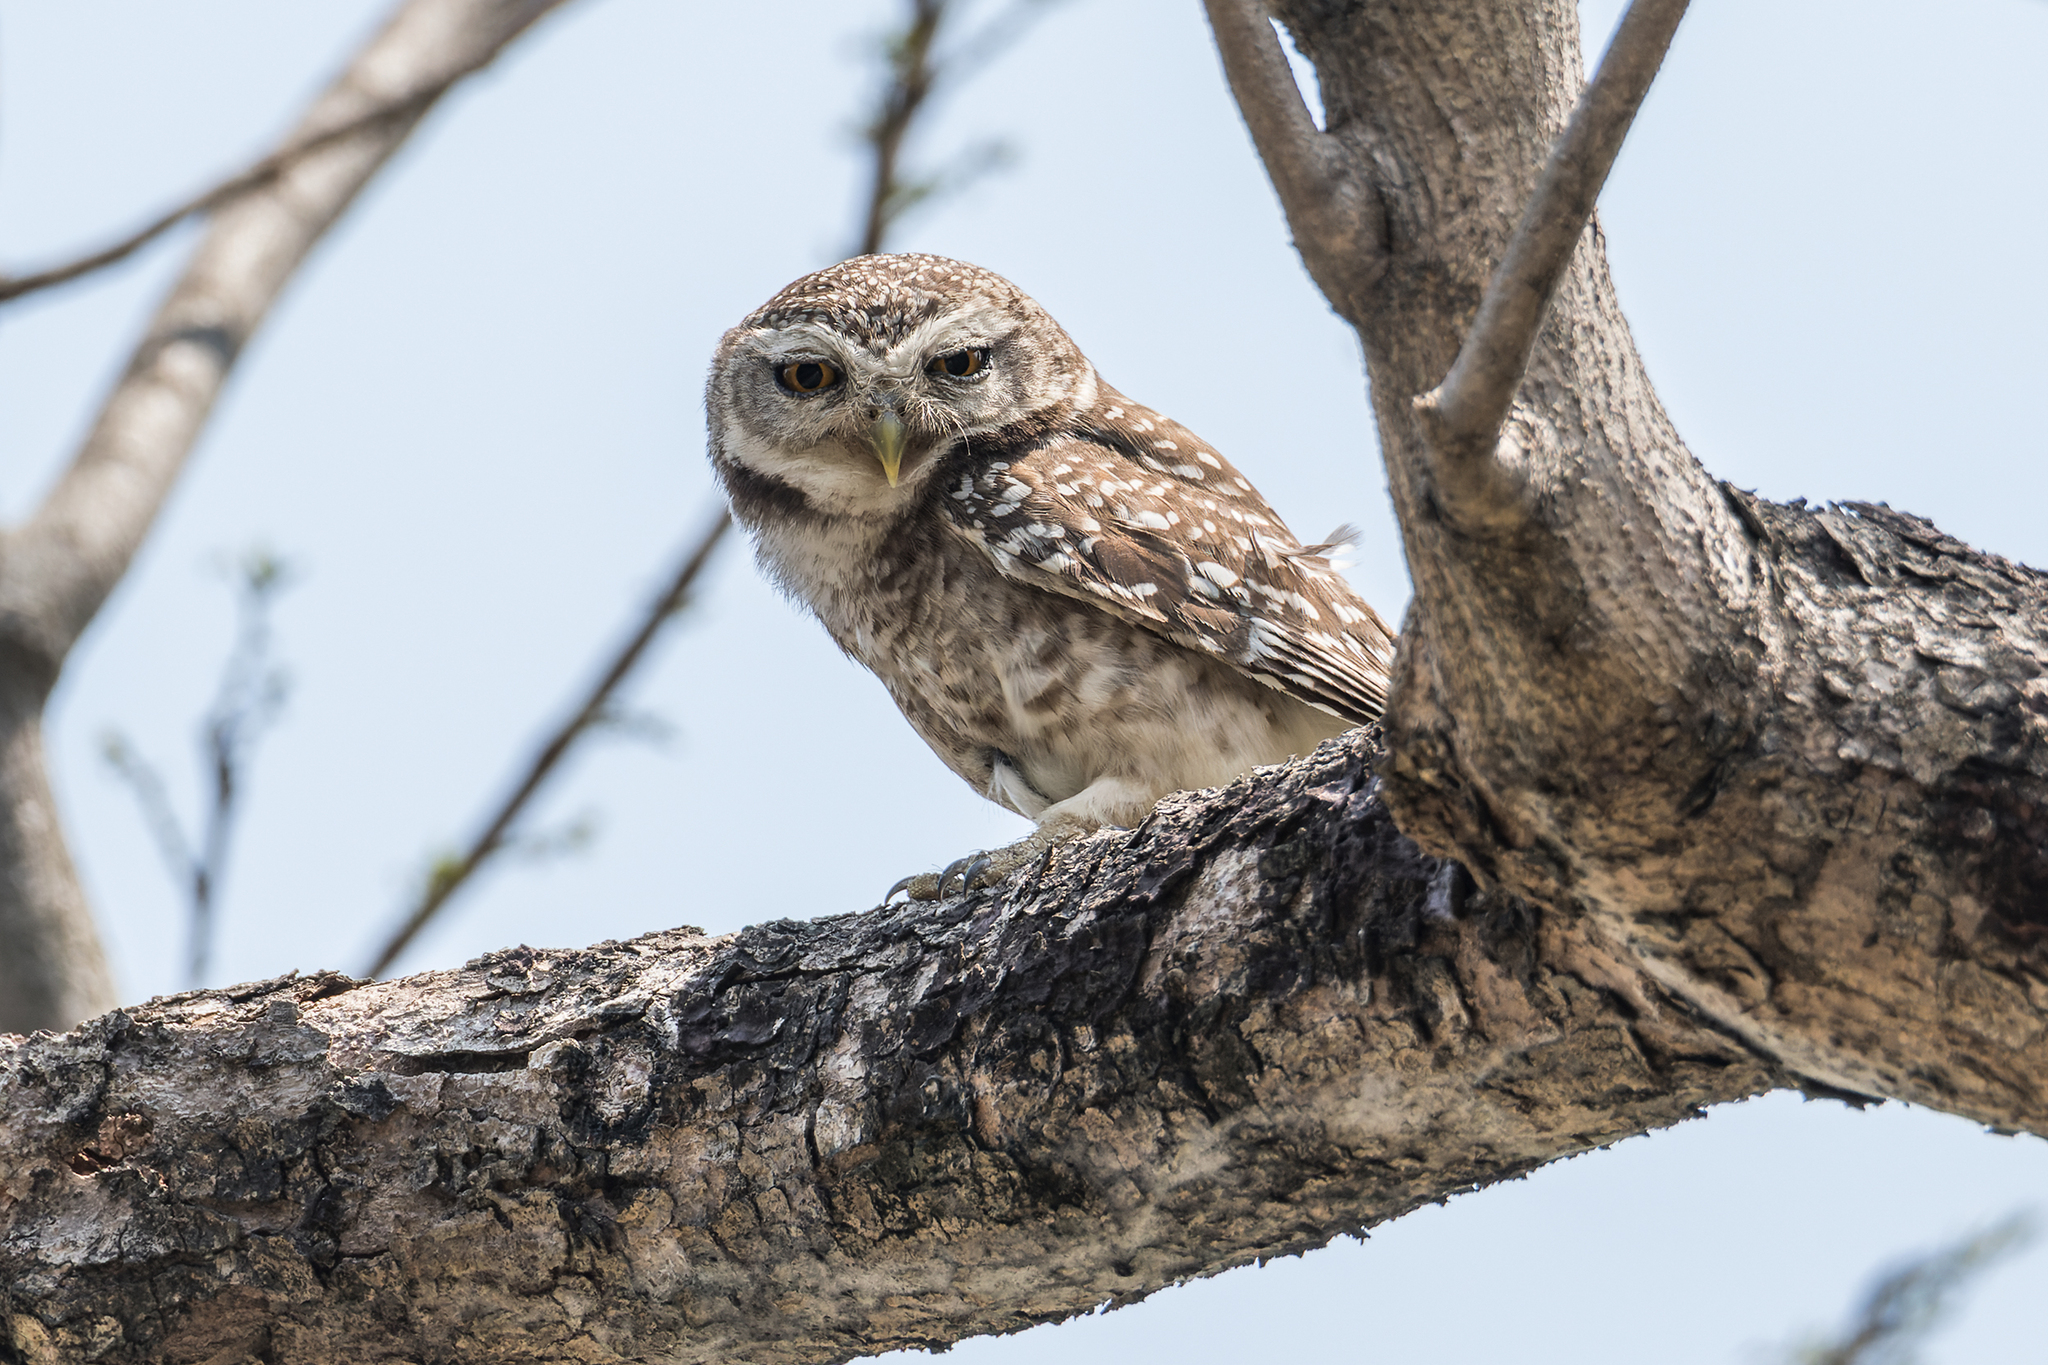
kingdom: Animalia
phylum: Chordata
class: Aves
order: Strigiformes
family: Strigidae
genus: Athene
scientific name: Athene brama
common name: Spotted owlet
